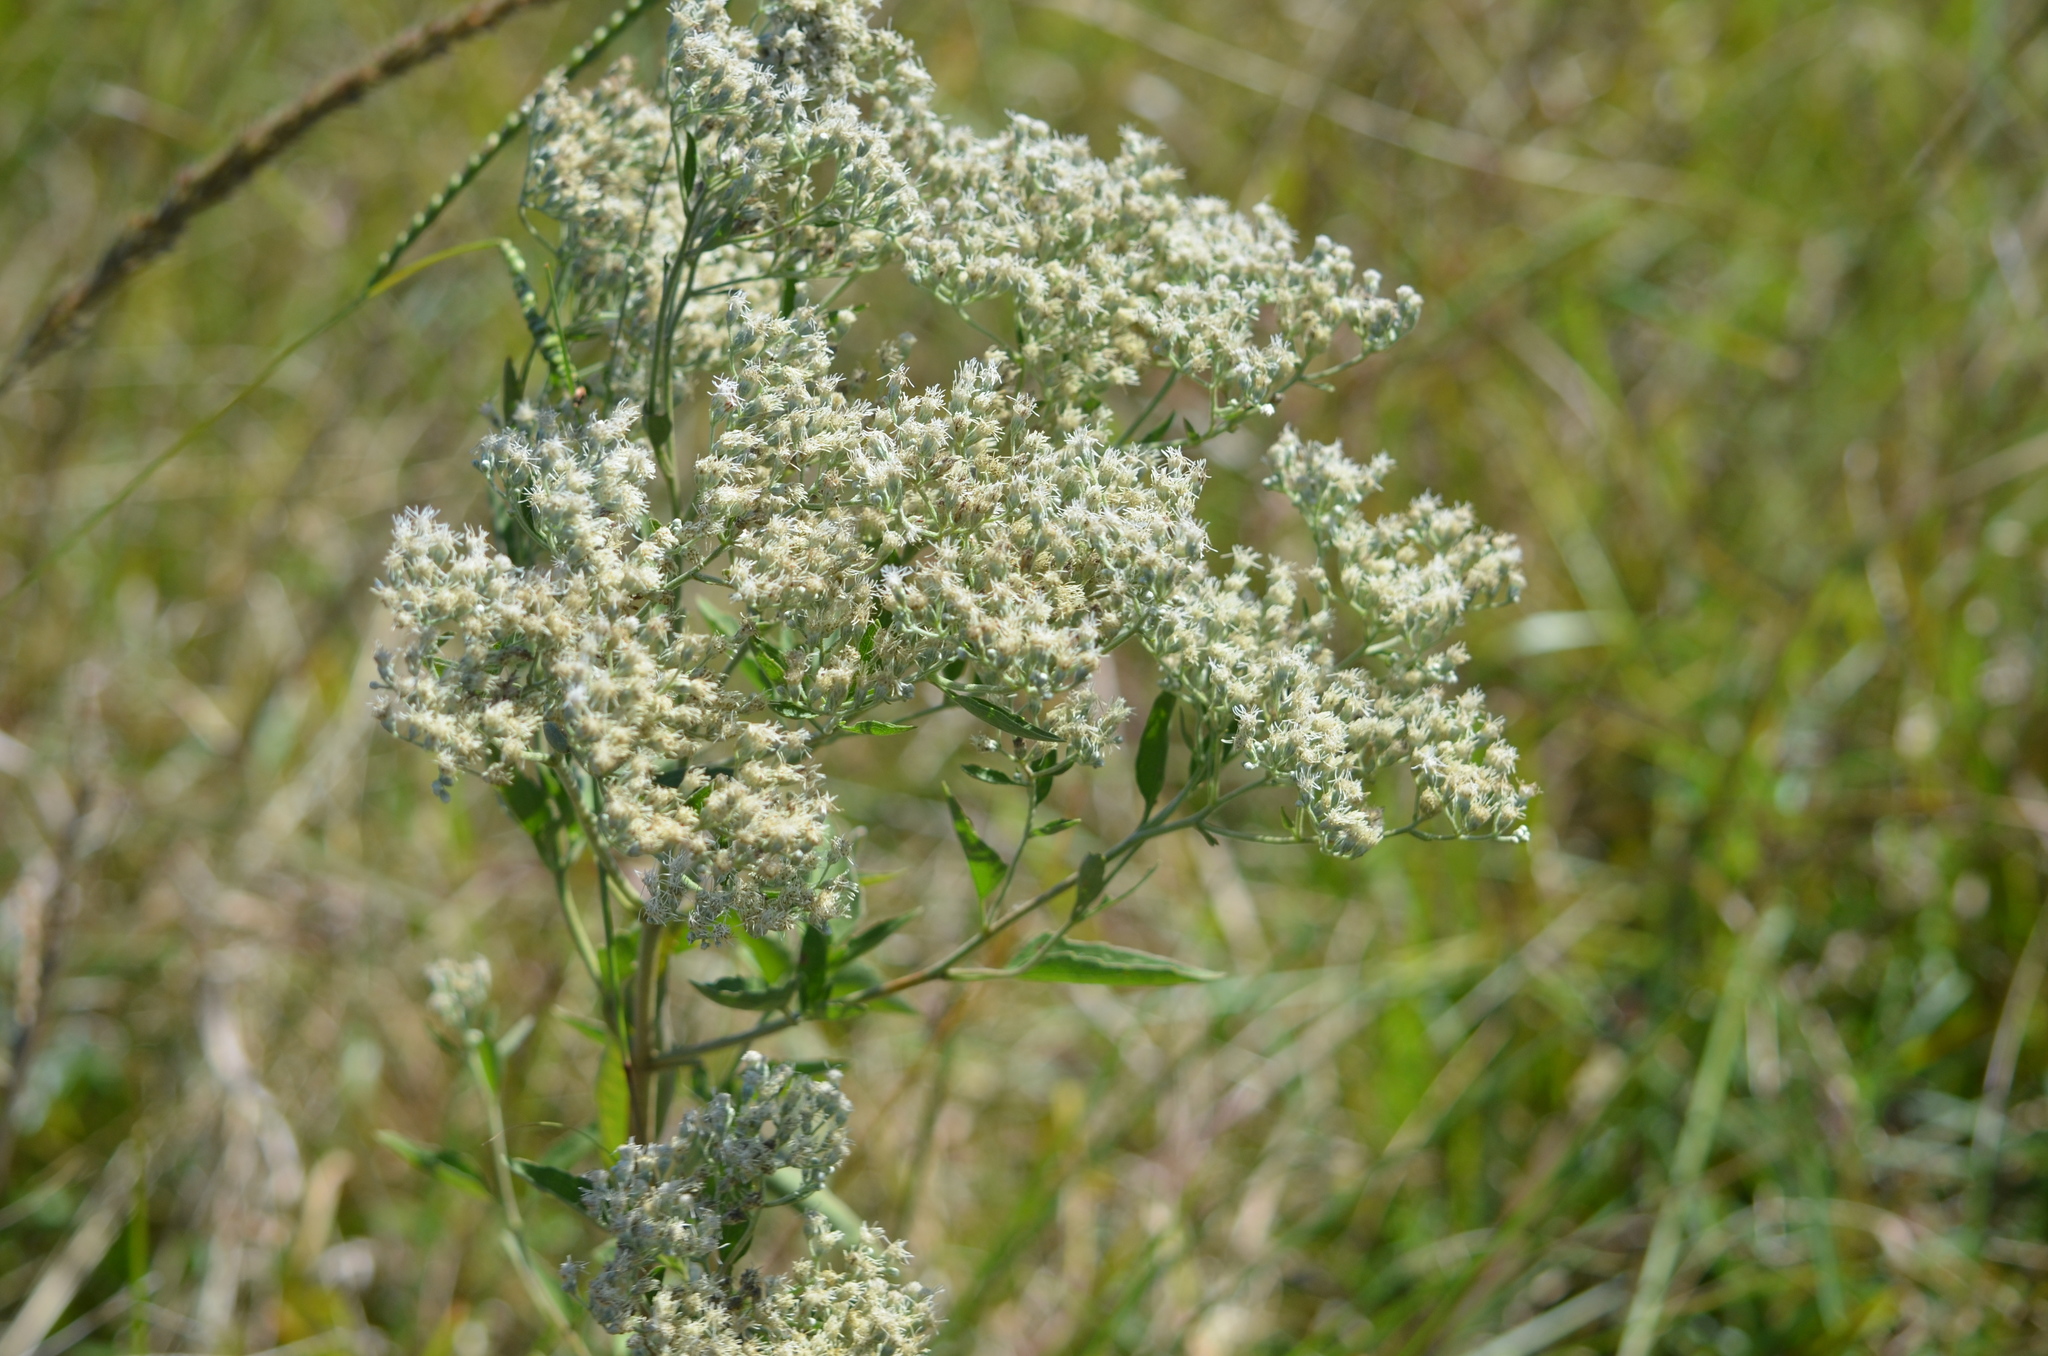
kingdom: Plantae
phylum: Tracheophyta
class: Magnoliopsida
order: Asterales
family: Asteraceae
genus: Eupatorium
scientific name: Eupatorium serotinum
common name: Late boneset
